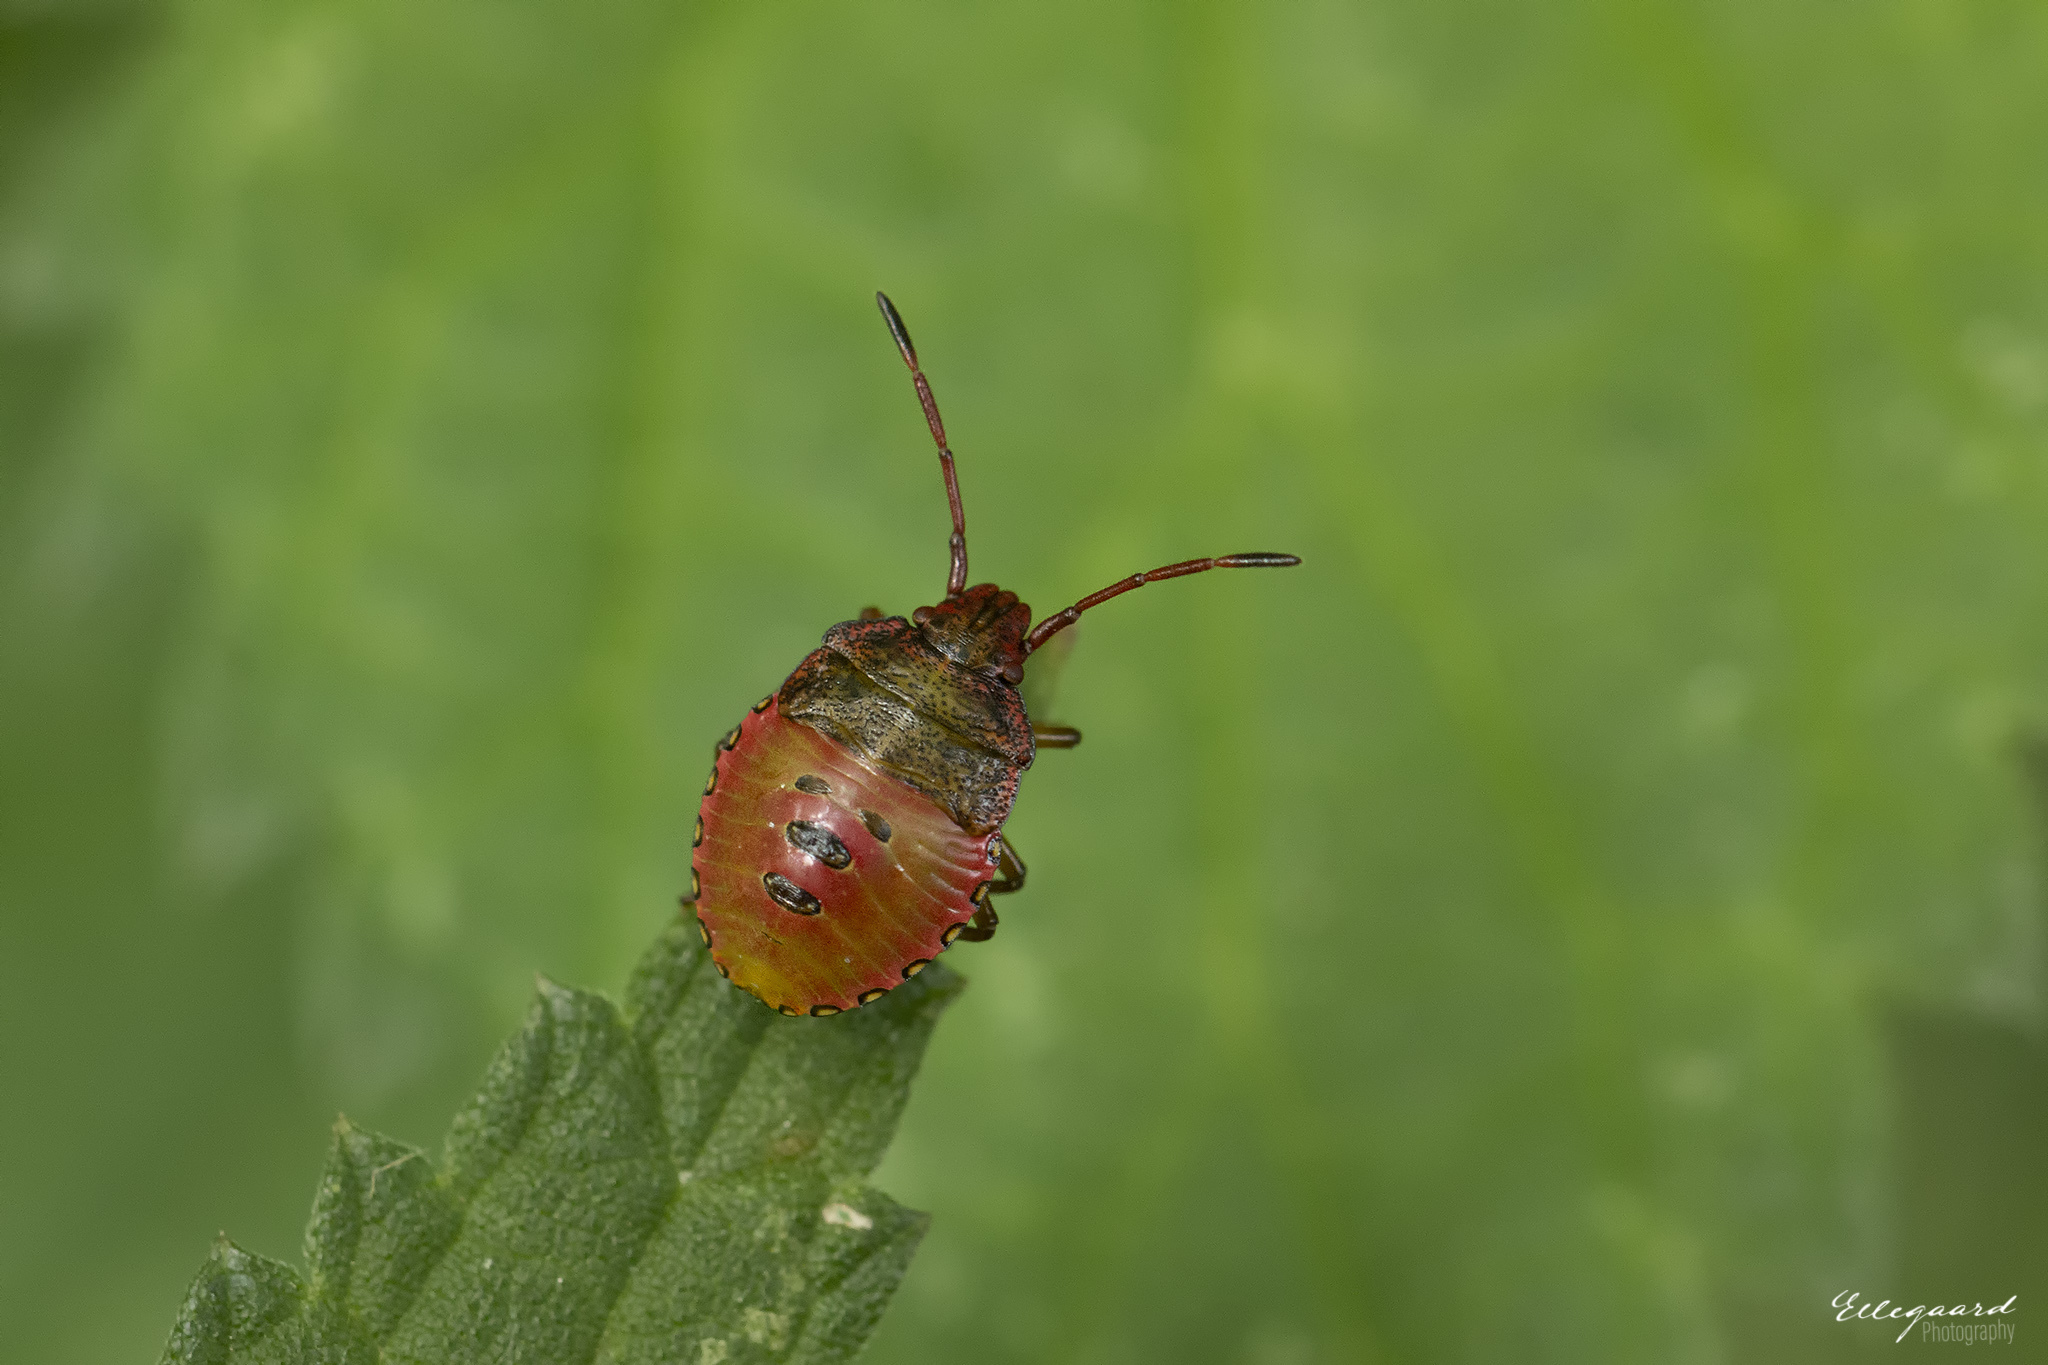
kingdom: Animalia
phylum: Arthropoda
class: Insecta
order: Hemiptera
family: Acanthosomatidae
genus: Acanthosoma
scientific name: Acanthosoma haemorrhoidale
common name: Hawthorn shieldbug
